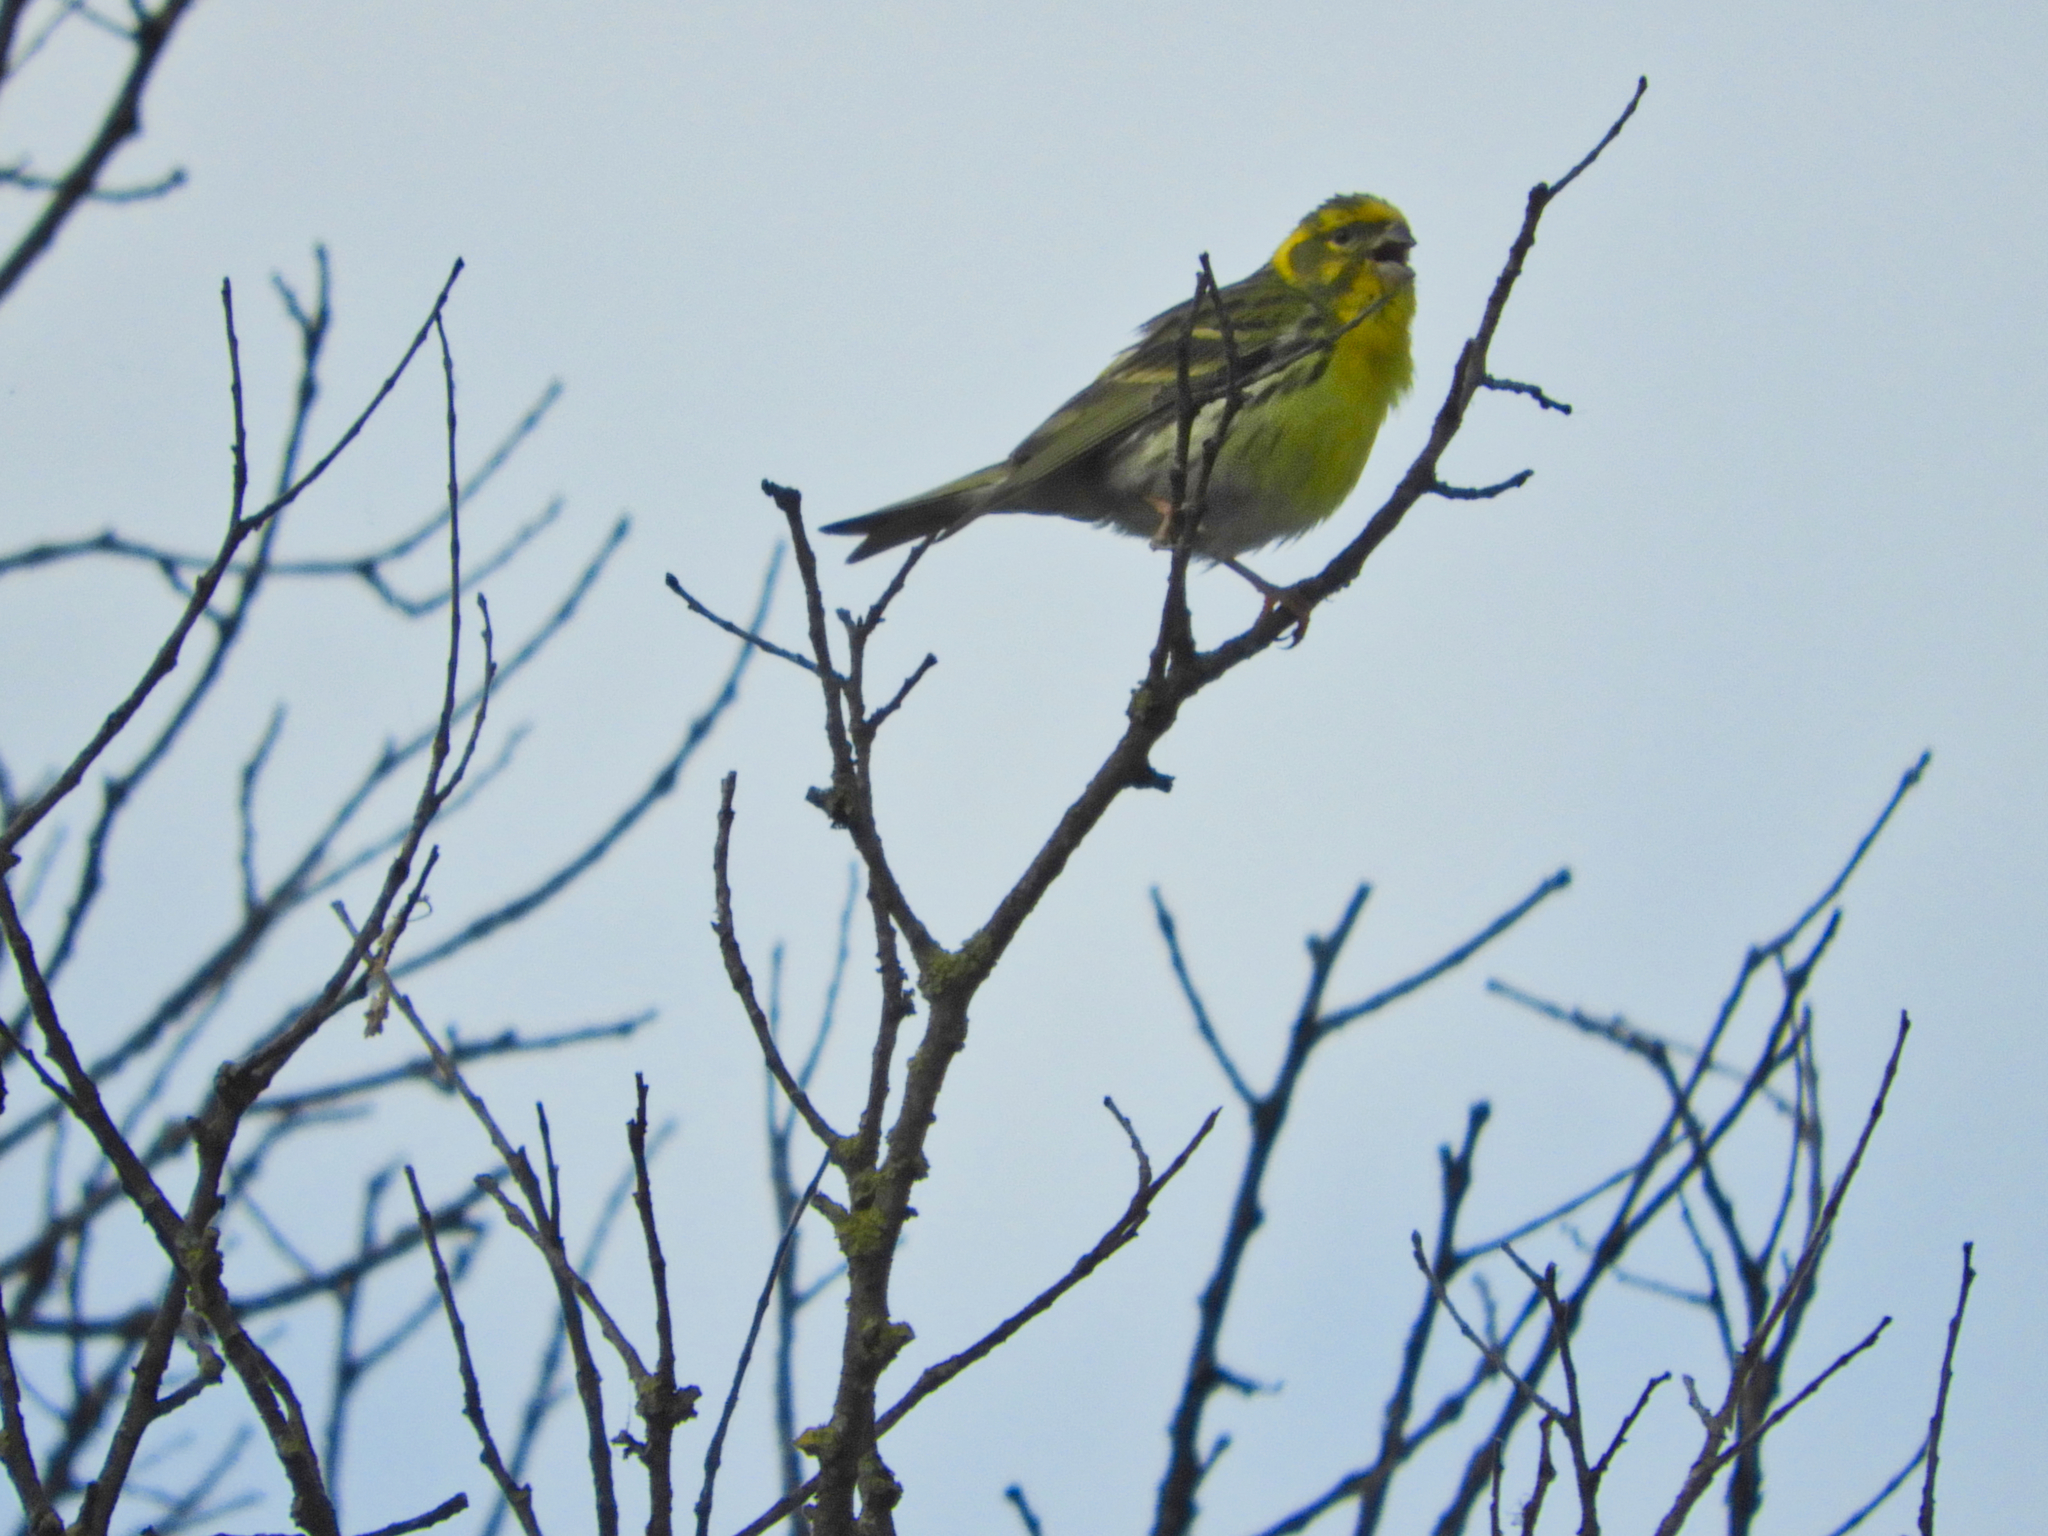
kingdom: Animalia
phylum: Chordata
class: Aves
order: Passeriformes
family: Fringillidae
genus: Serinus
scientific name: Serinus serinus
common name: European serin
